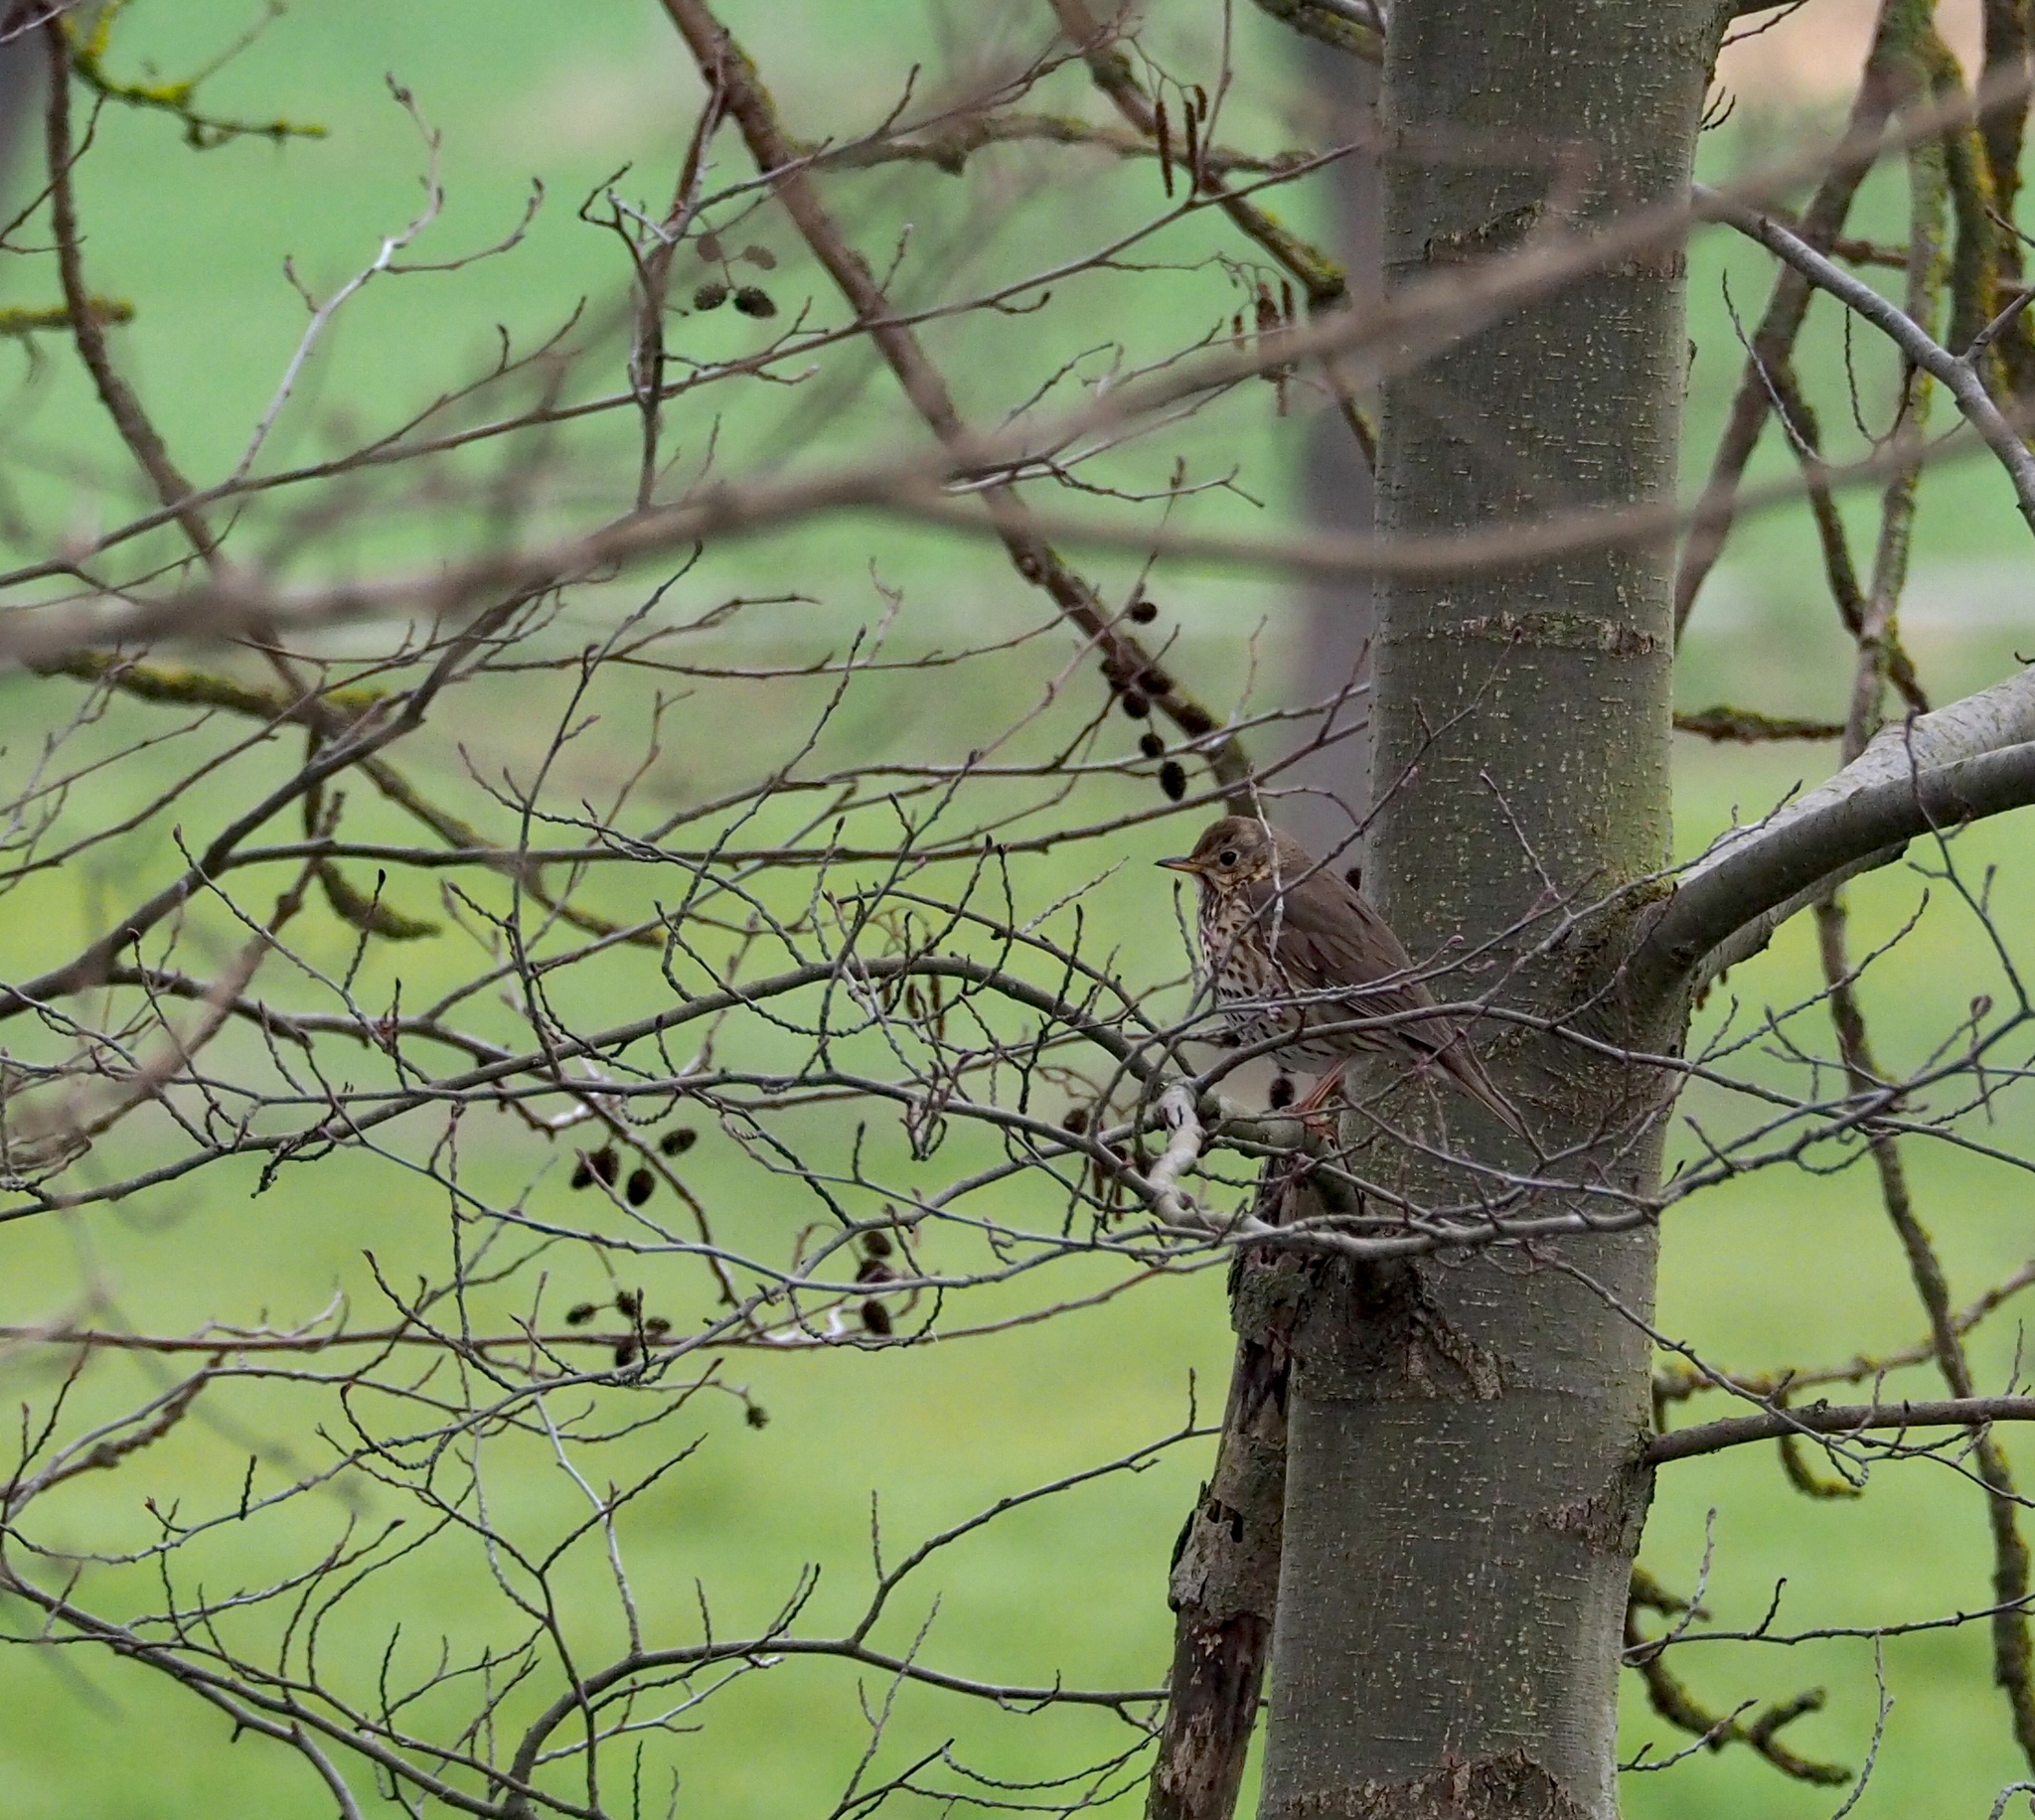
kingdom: Animalia
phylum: Chordata
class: Aves
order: Passeriformes
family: Turdidae
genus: Turdus
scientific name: Turdus philomelos
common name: Song thrush
